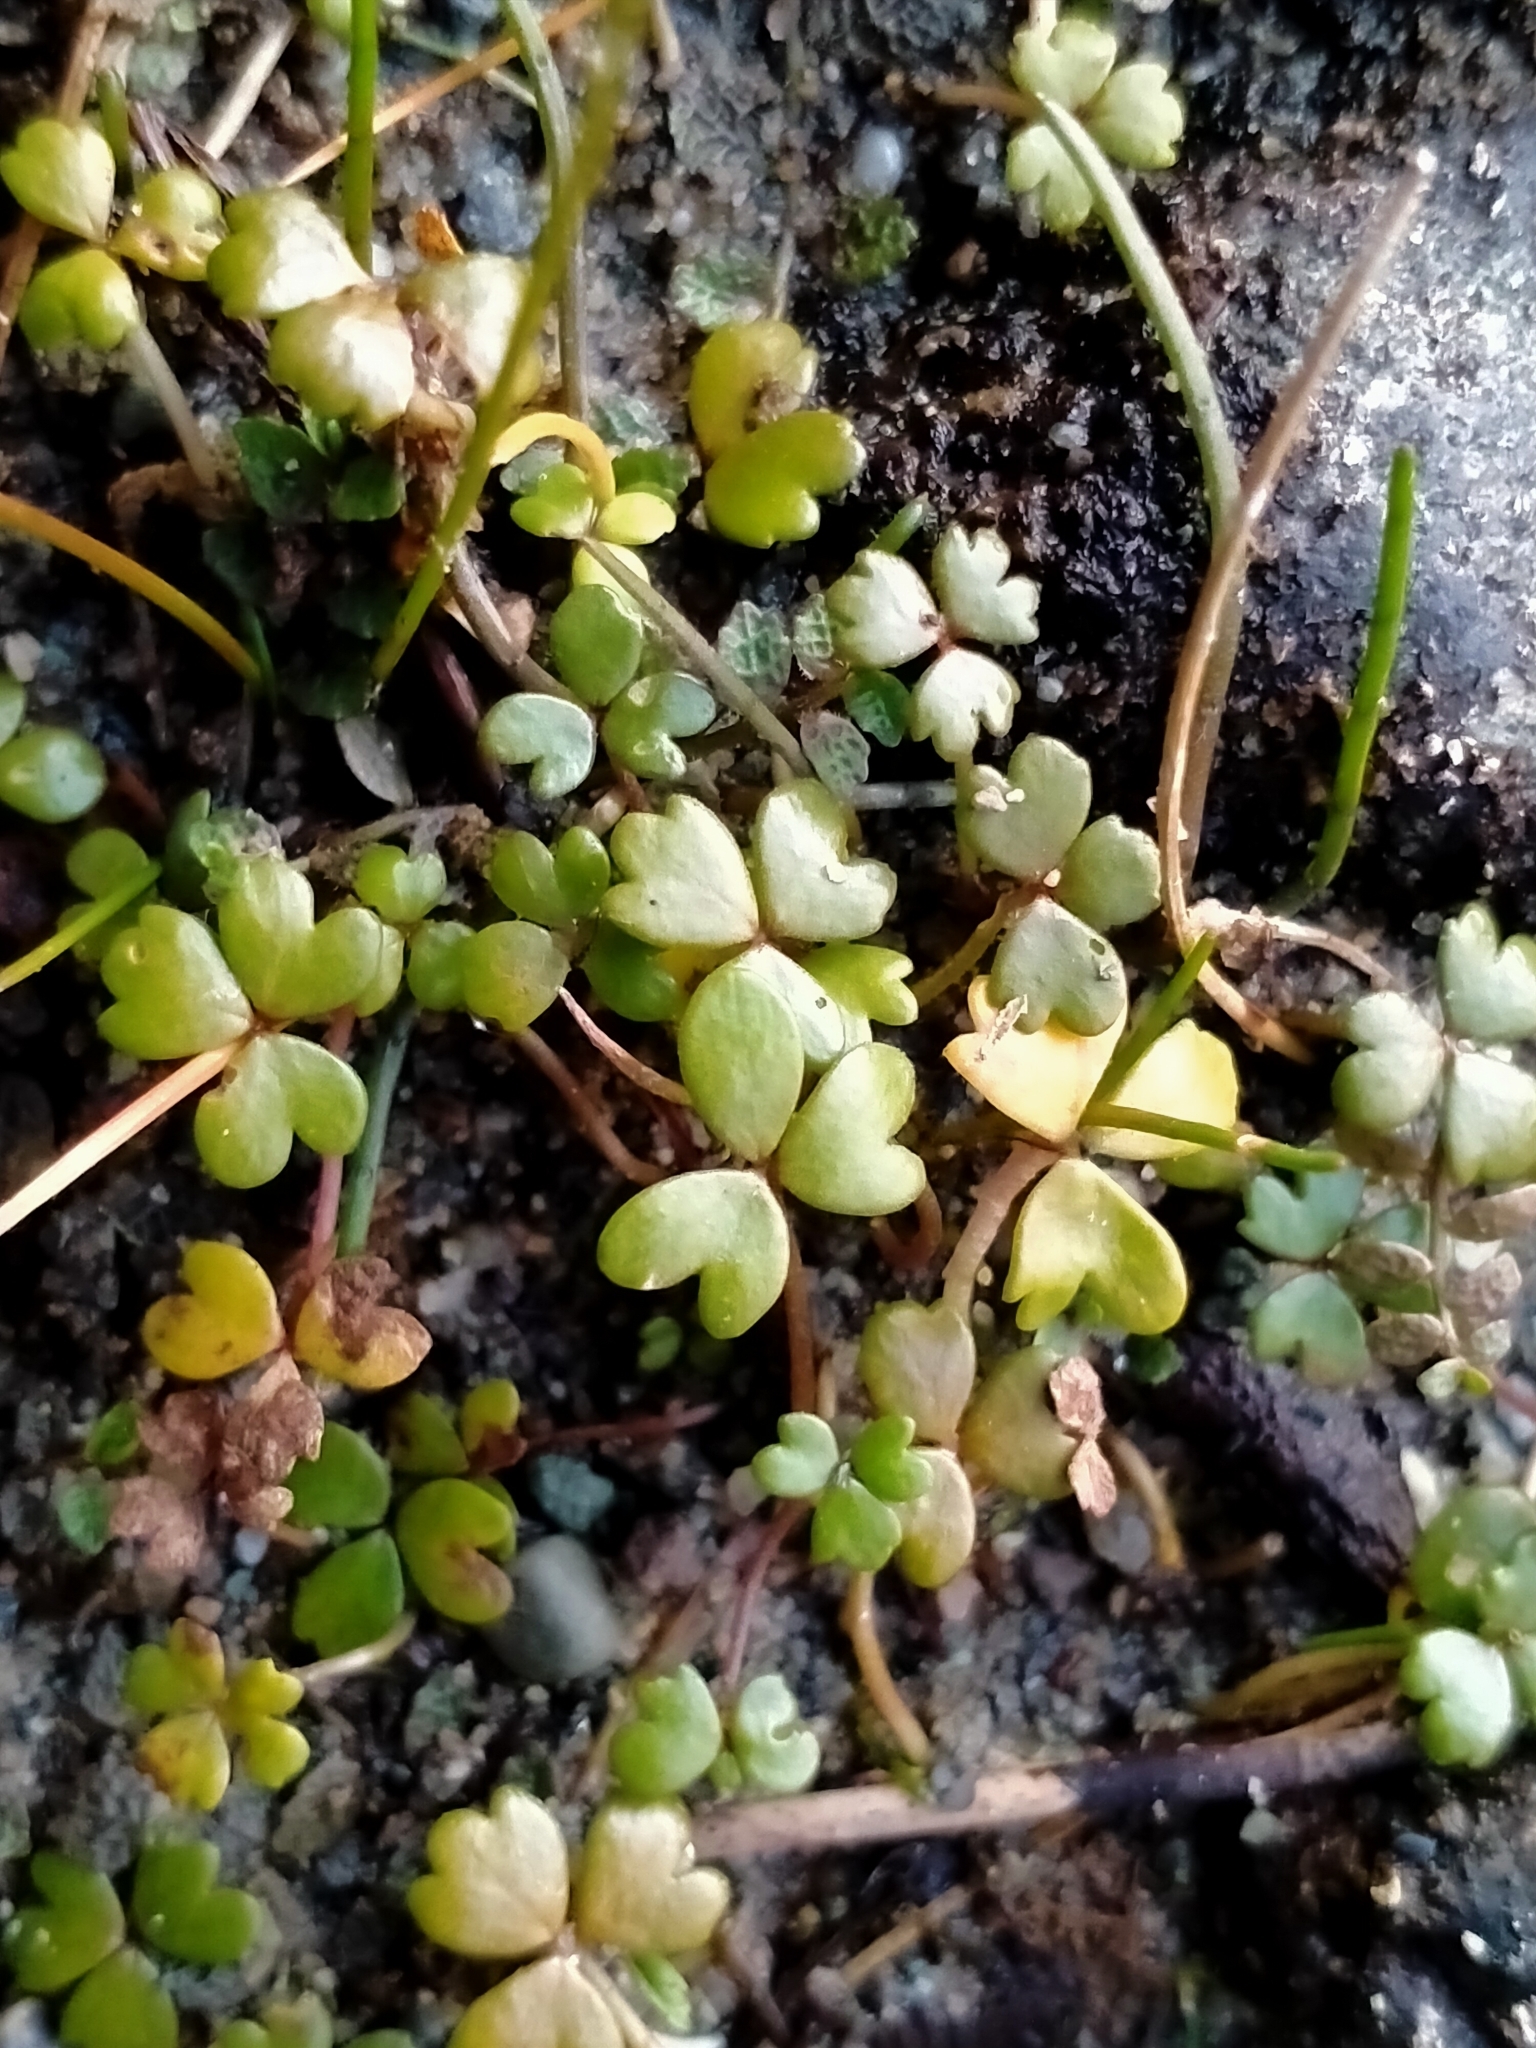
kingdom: Plantae
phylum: Tracheophyta
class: Magnoliopsida
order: Apiales
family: Araliaceae
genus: Hydrocotyle
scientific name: Hydrocotyle sulcata
